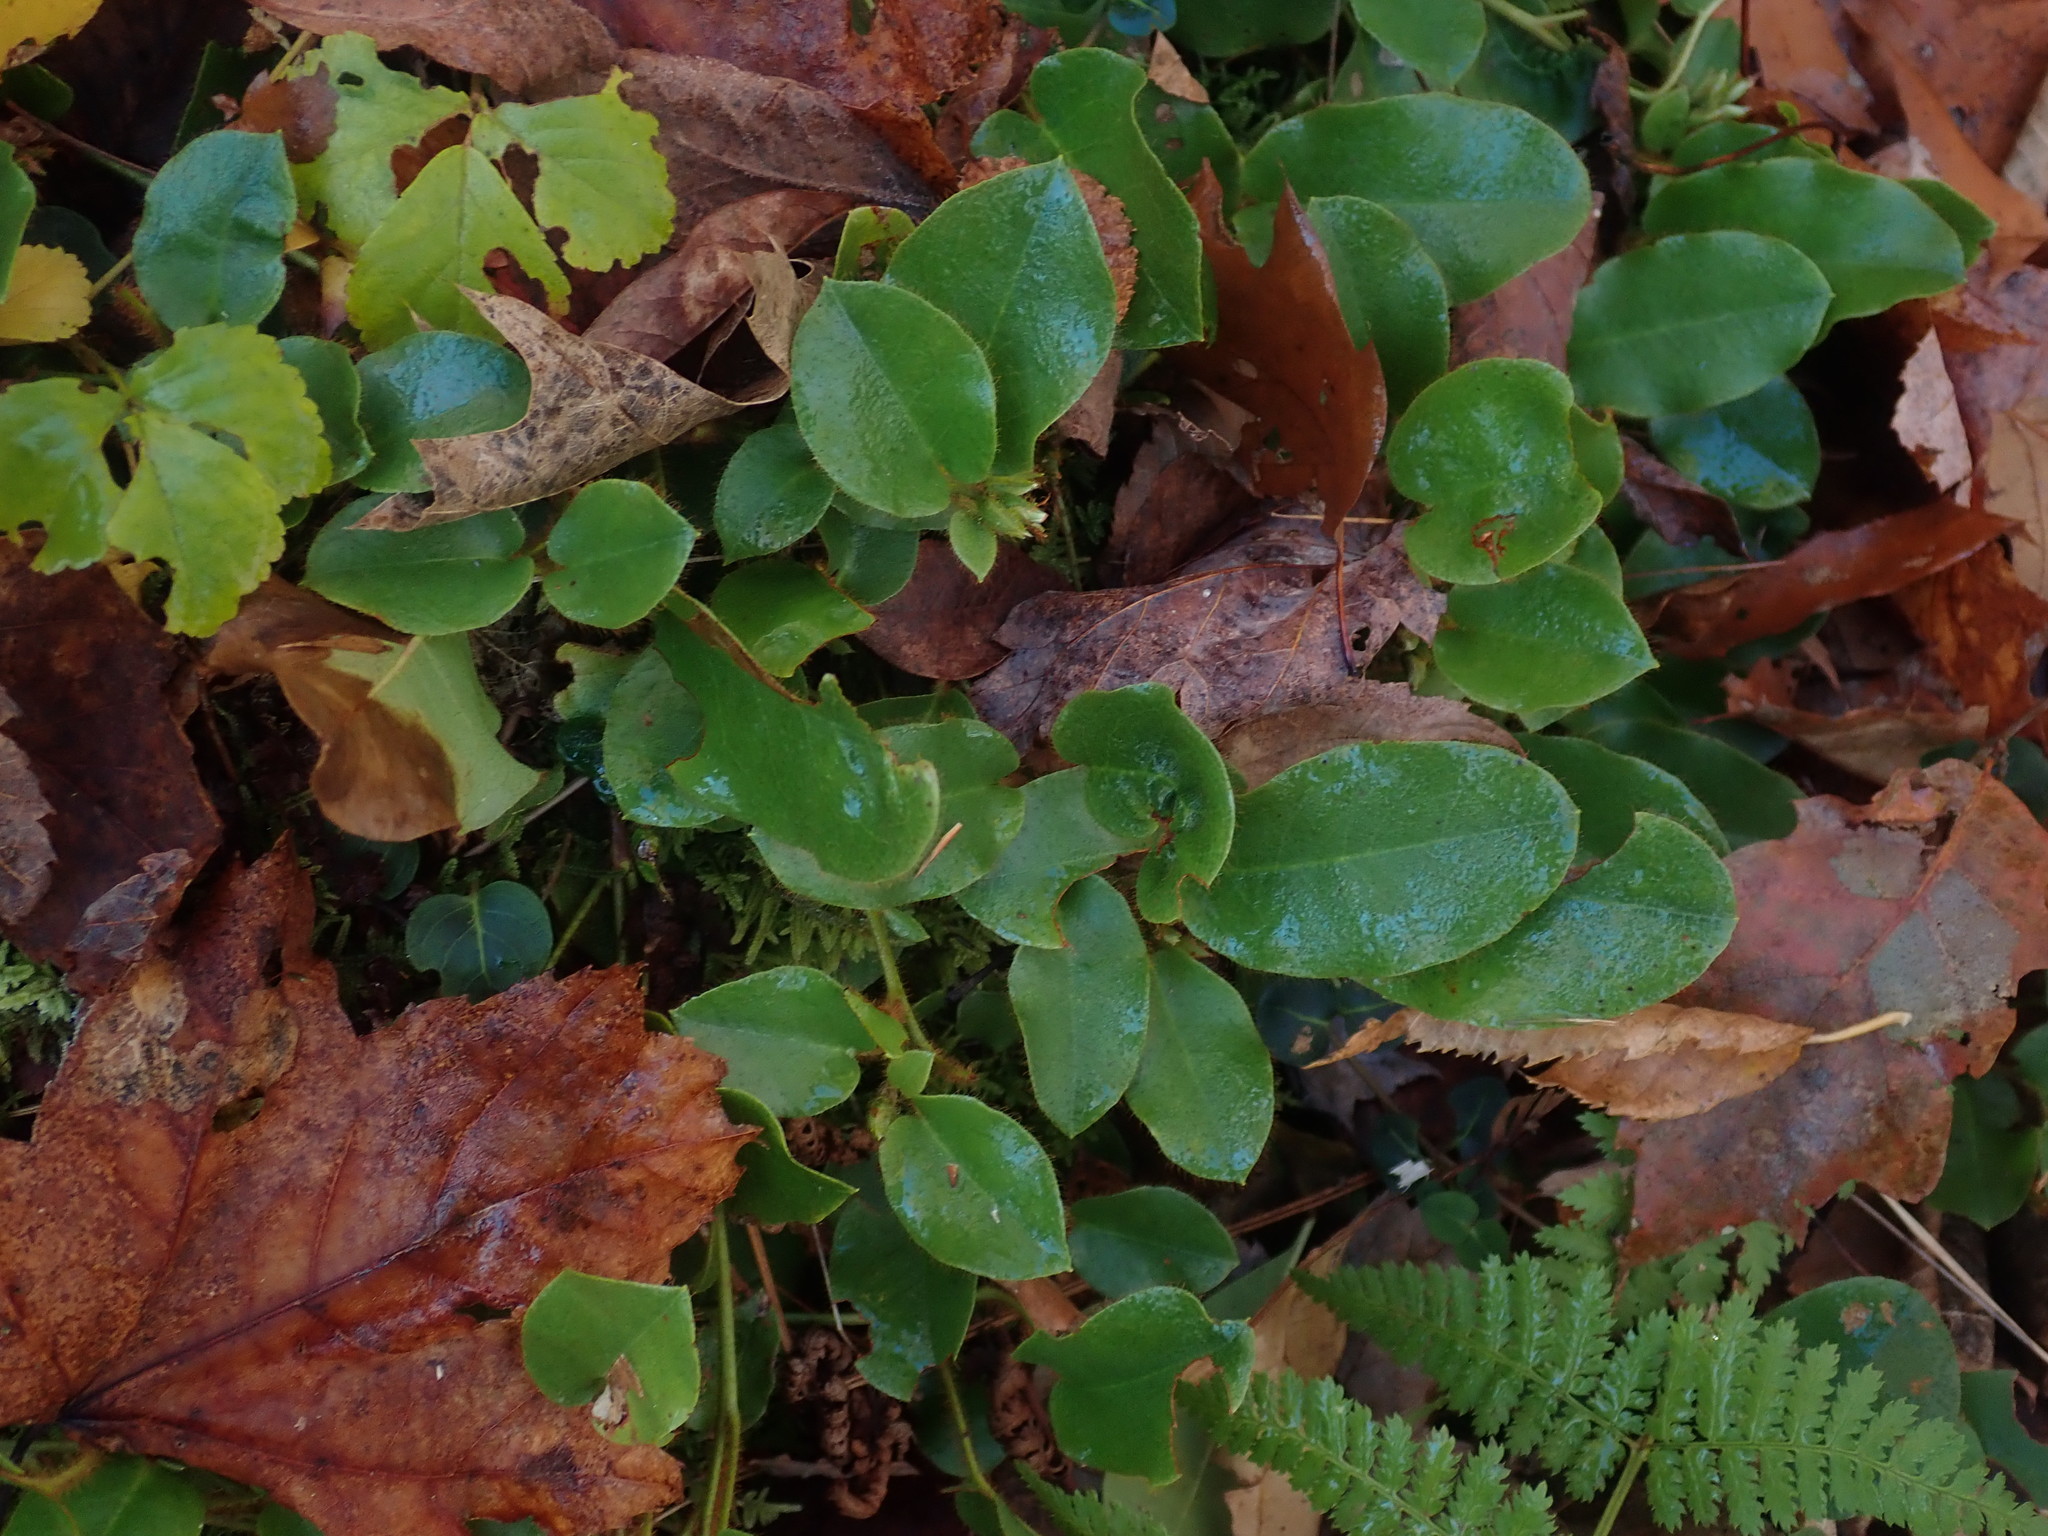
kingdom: Plantae
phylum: Tracheophyta
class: Magnoliopsida
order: Ericales
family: Ericaceae
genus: Epigaea
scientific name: Epigaea repens
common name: Gravelroot
